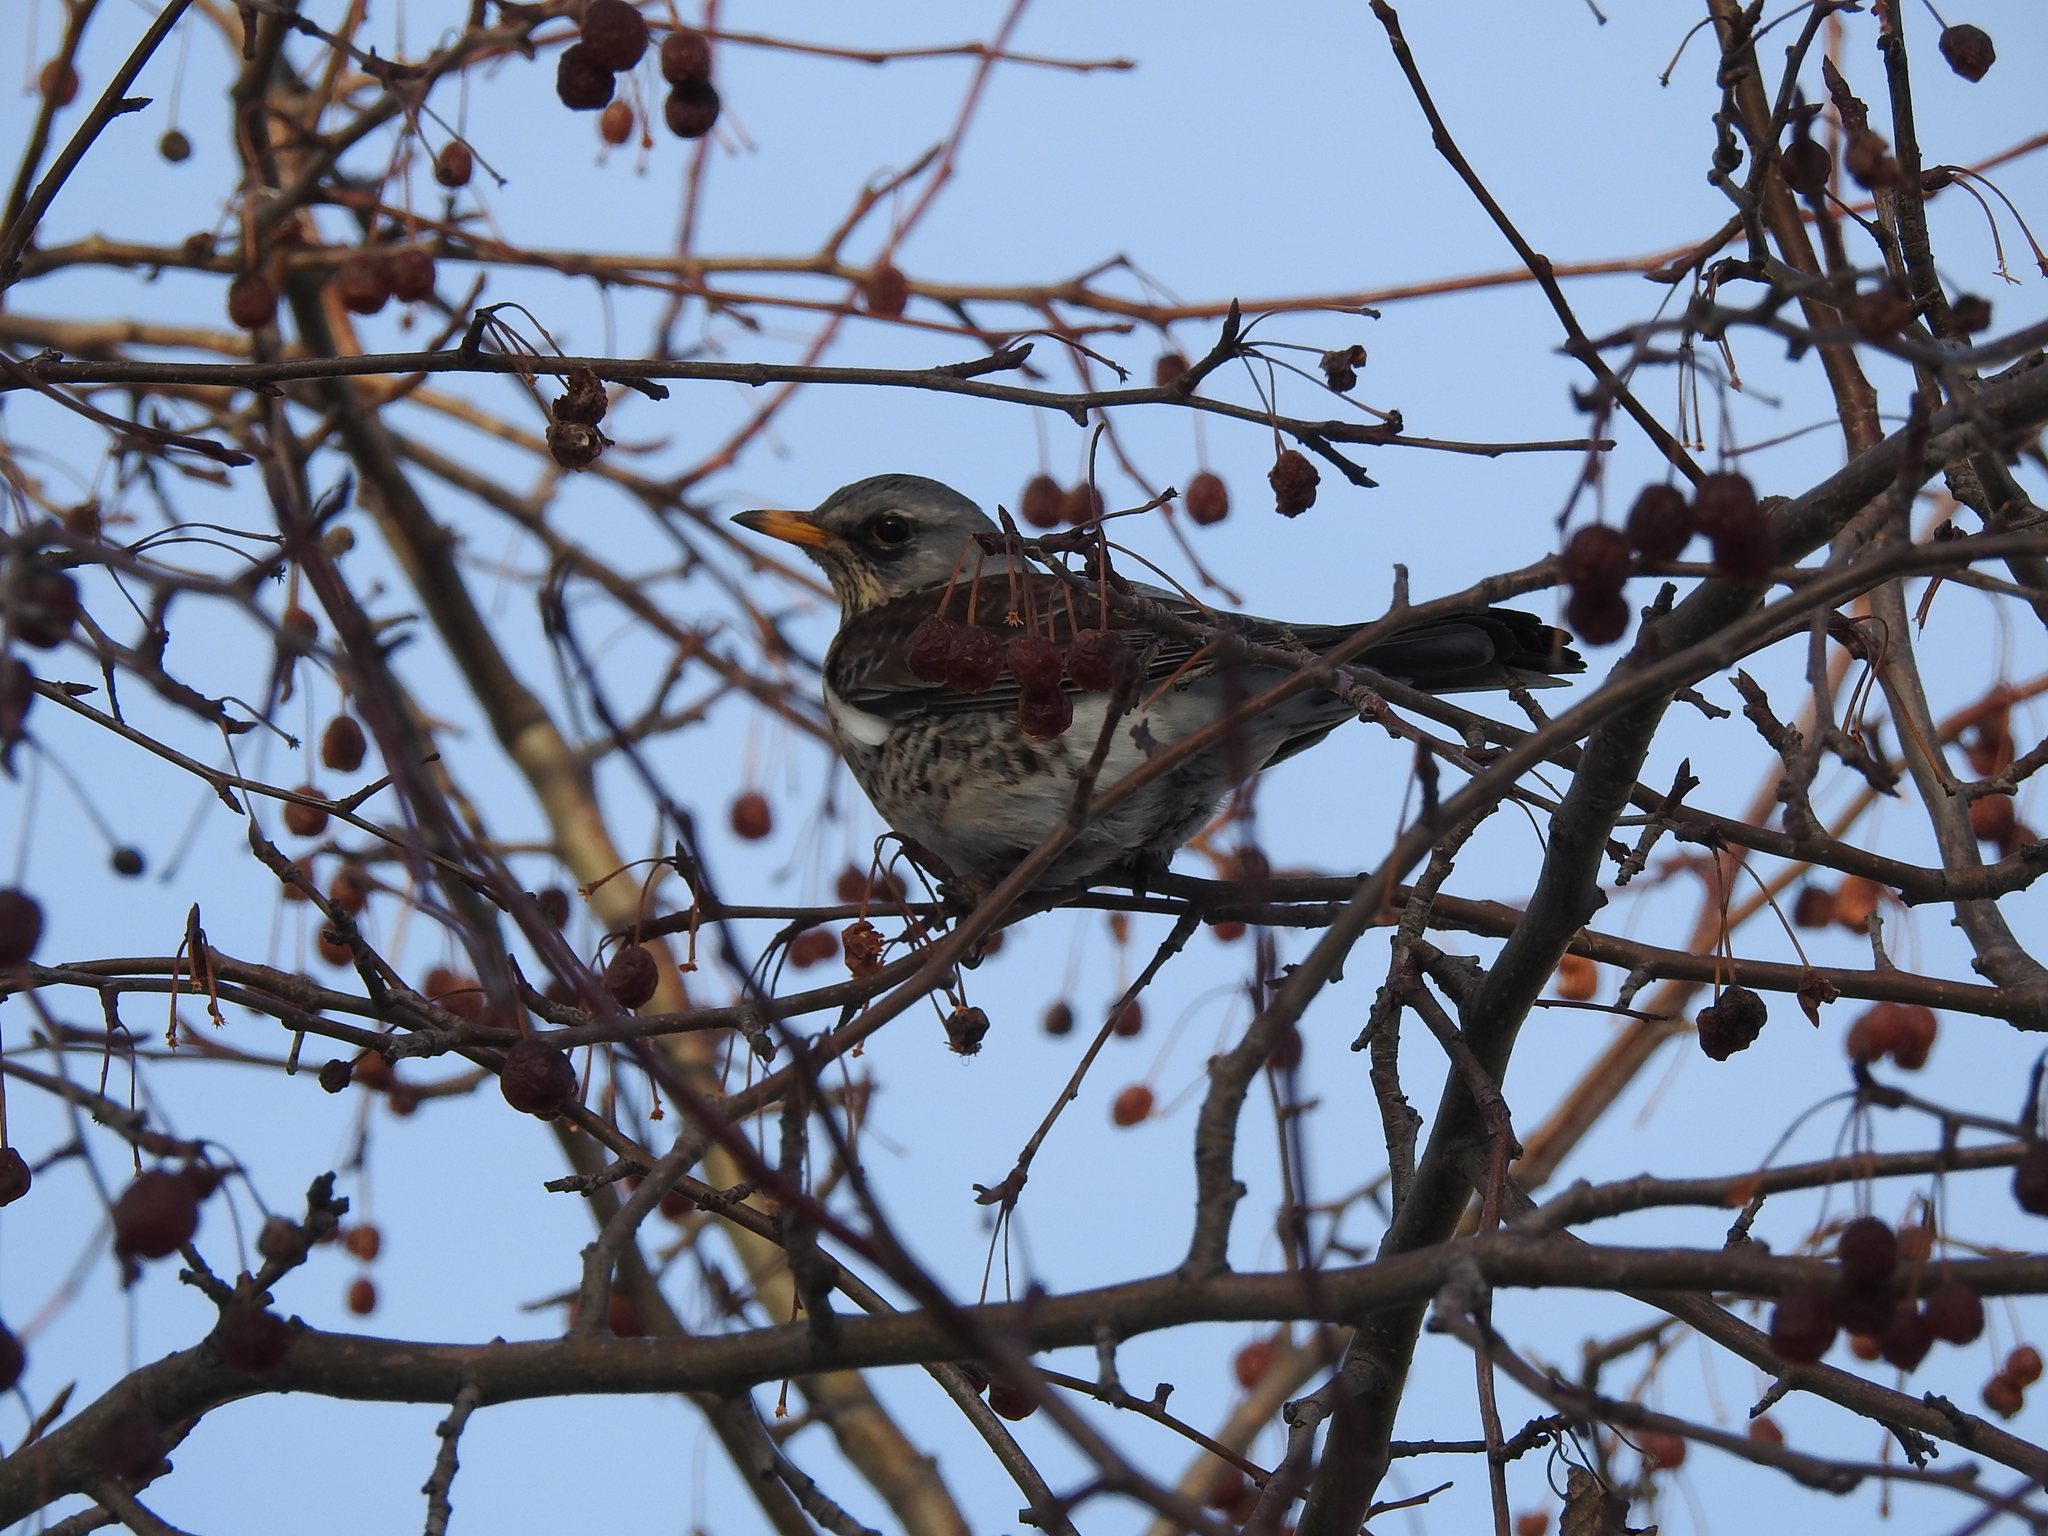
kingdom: Animalia
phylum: Chordata
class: Aves
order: Passeriformes
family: Turdidae
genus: Turdus
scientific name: Turdus pilaris
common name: Fieldfare
